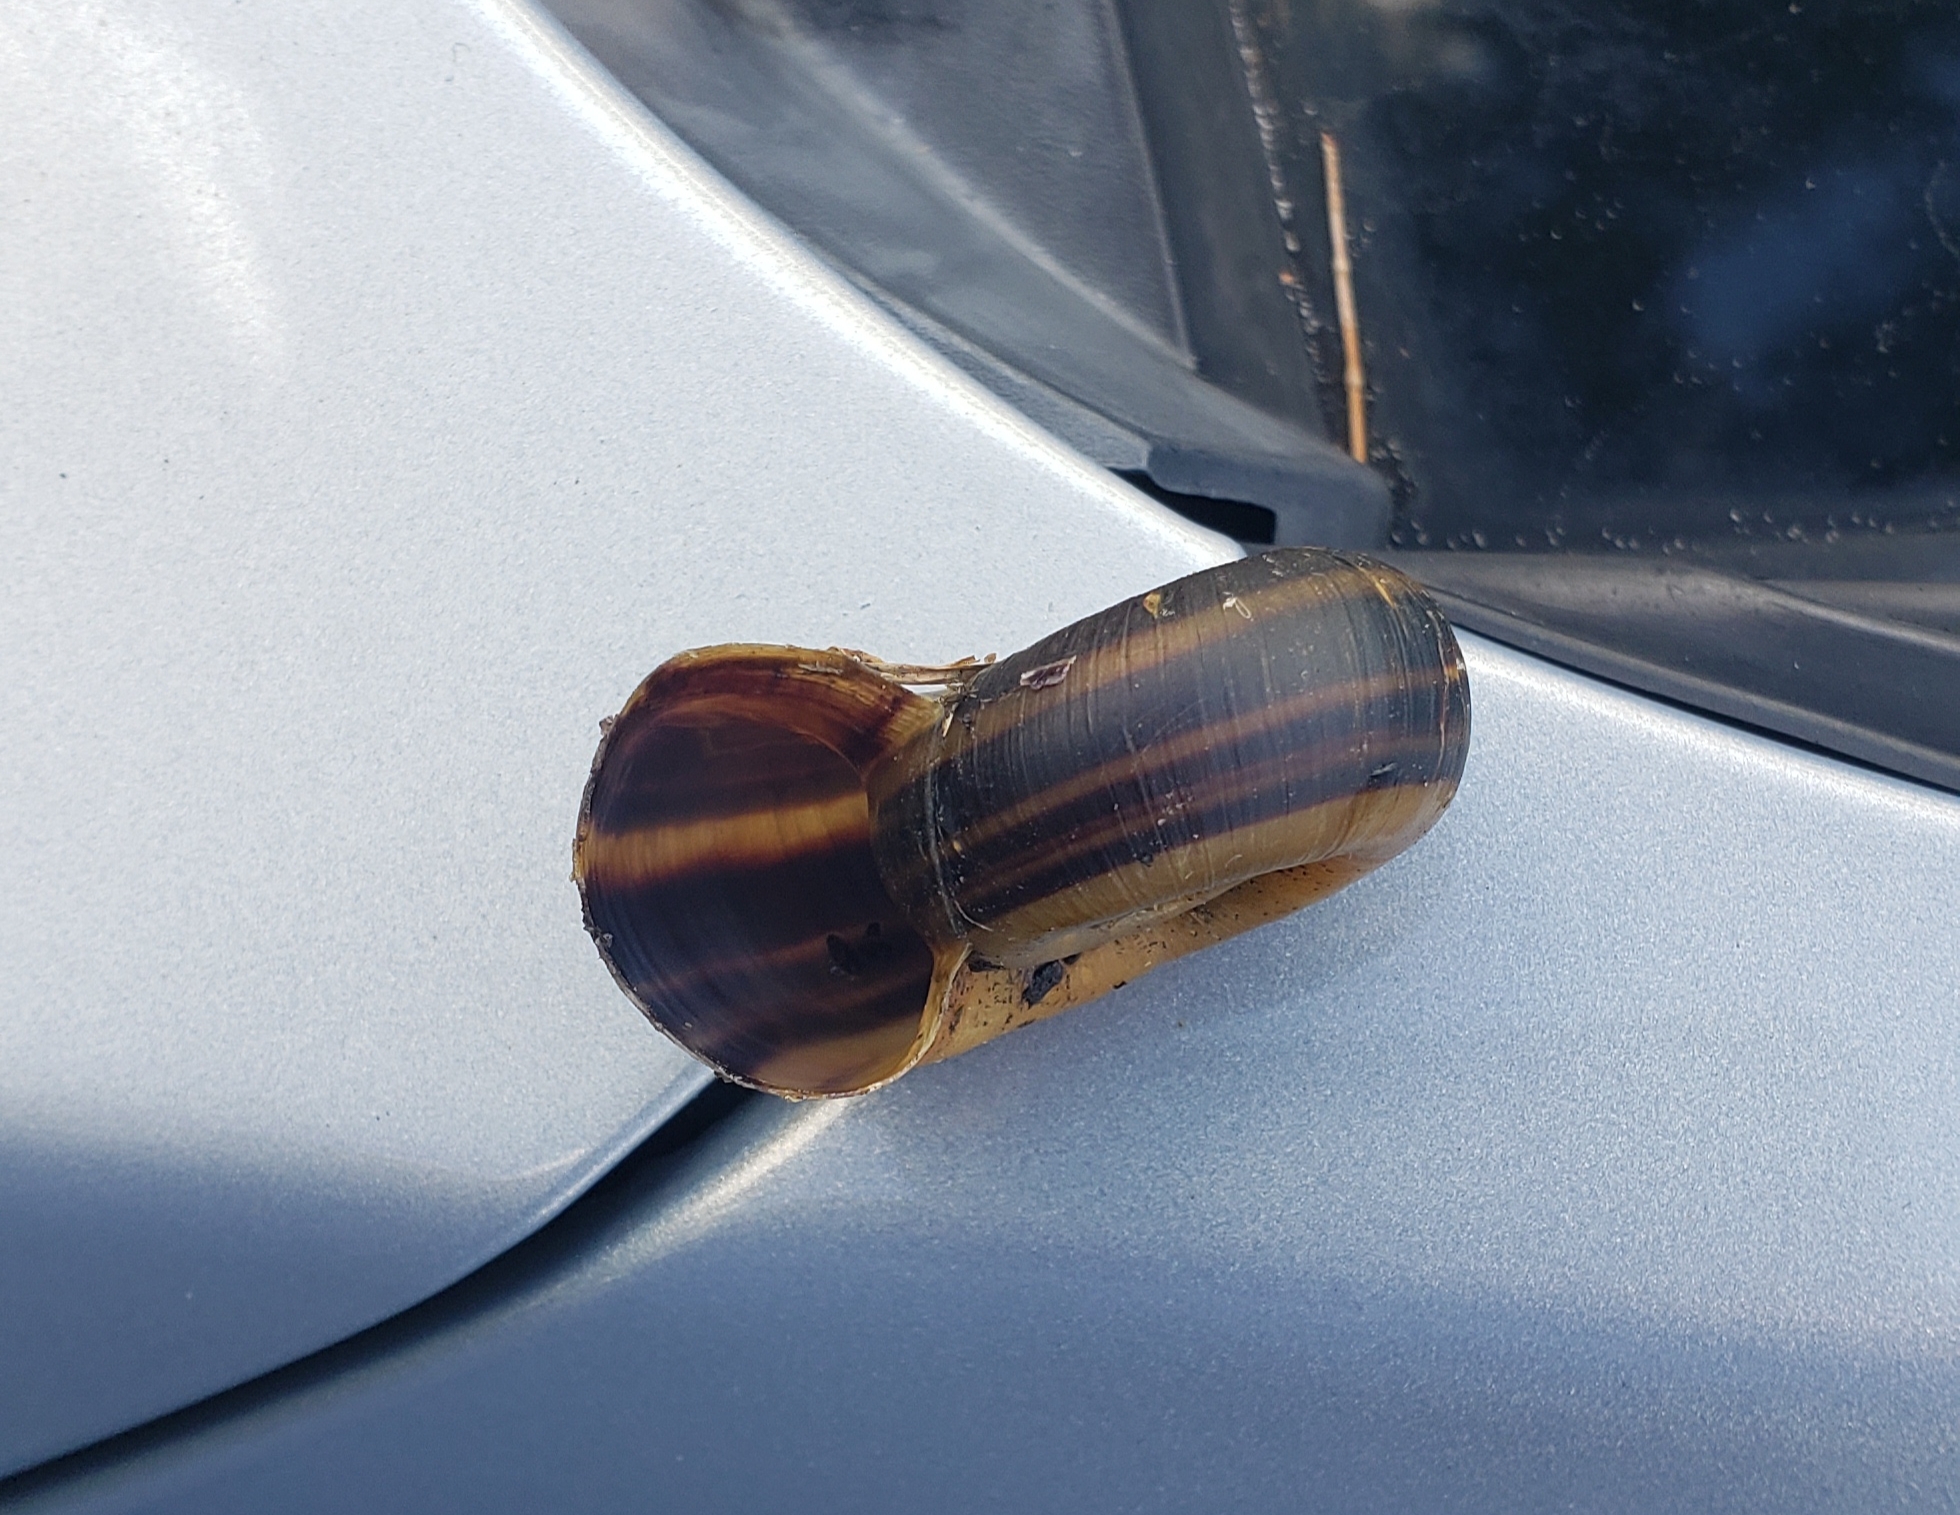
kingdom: Animalia
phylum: Mollusca
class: Gastropoda
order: Architaenioglossa
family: Ampullariidae
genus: Marisa
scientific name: Marisa cornuarietis
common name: Giant ramshorn snail
